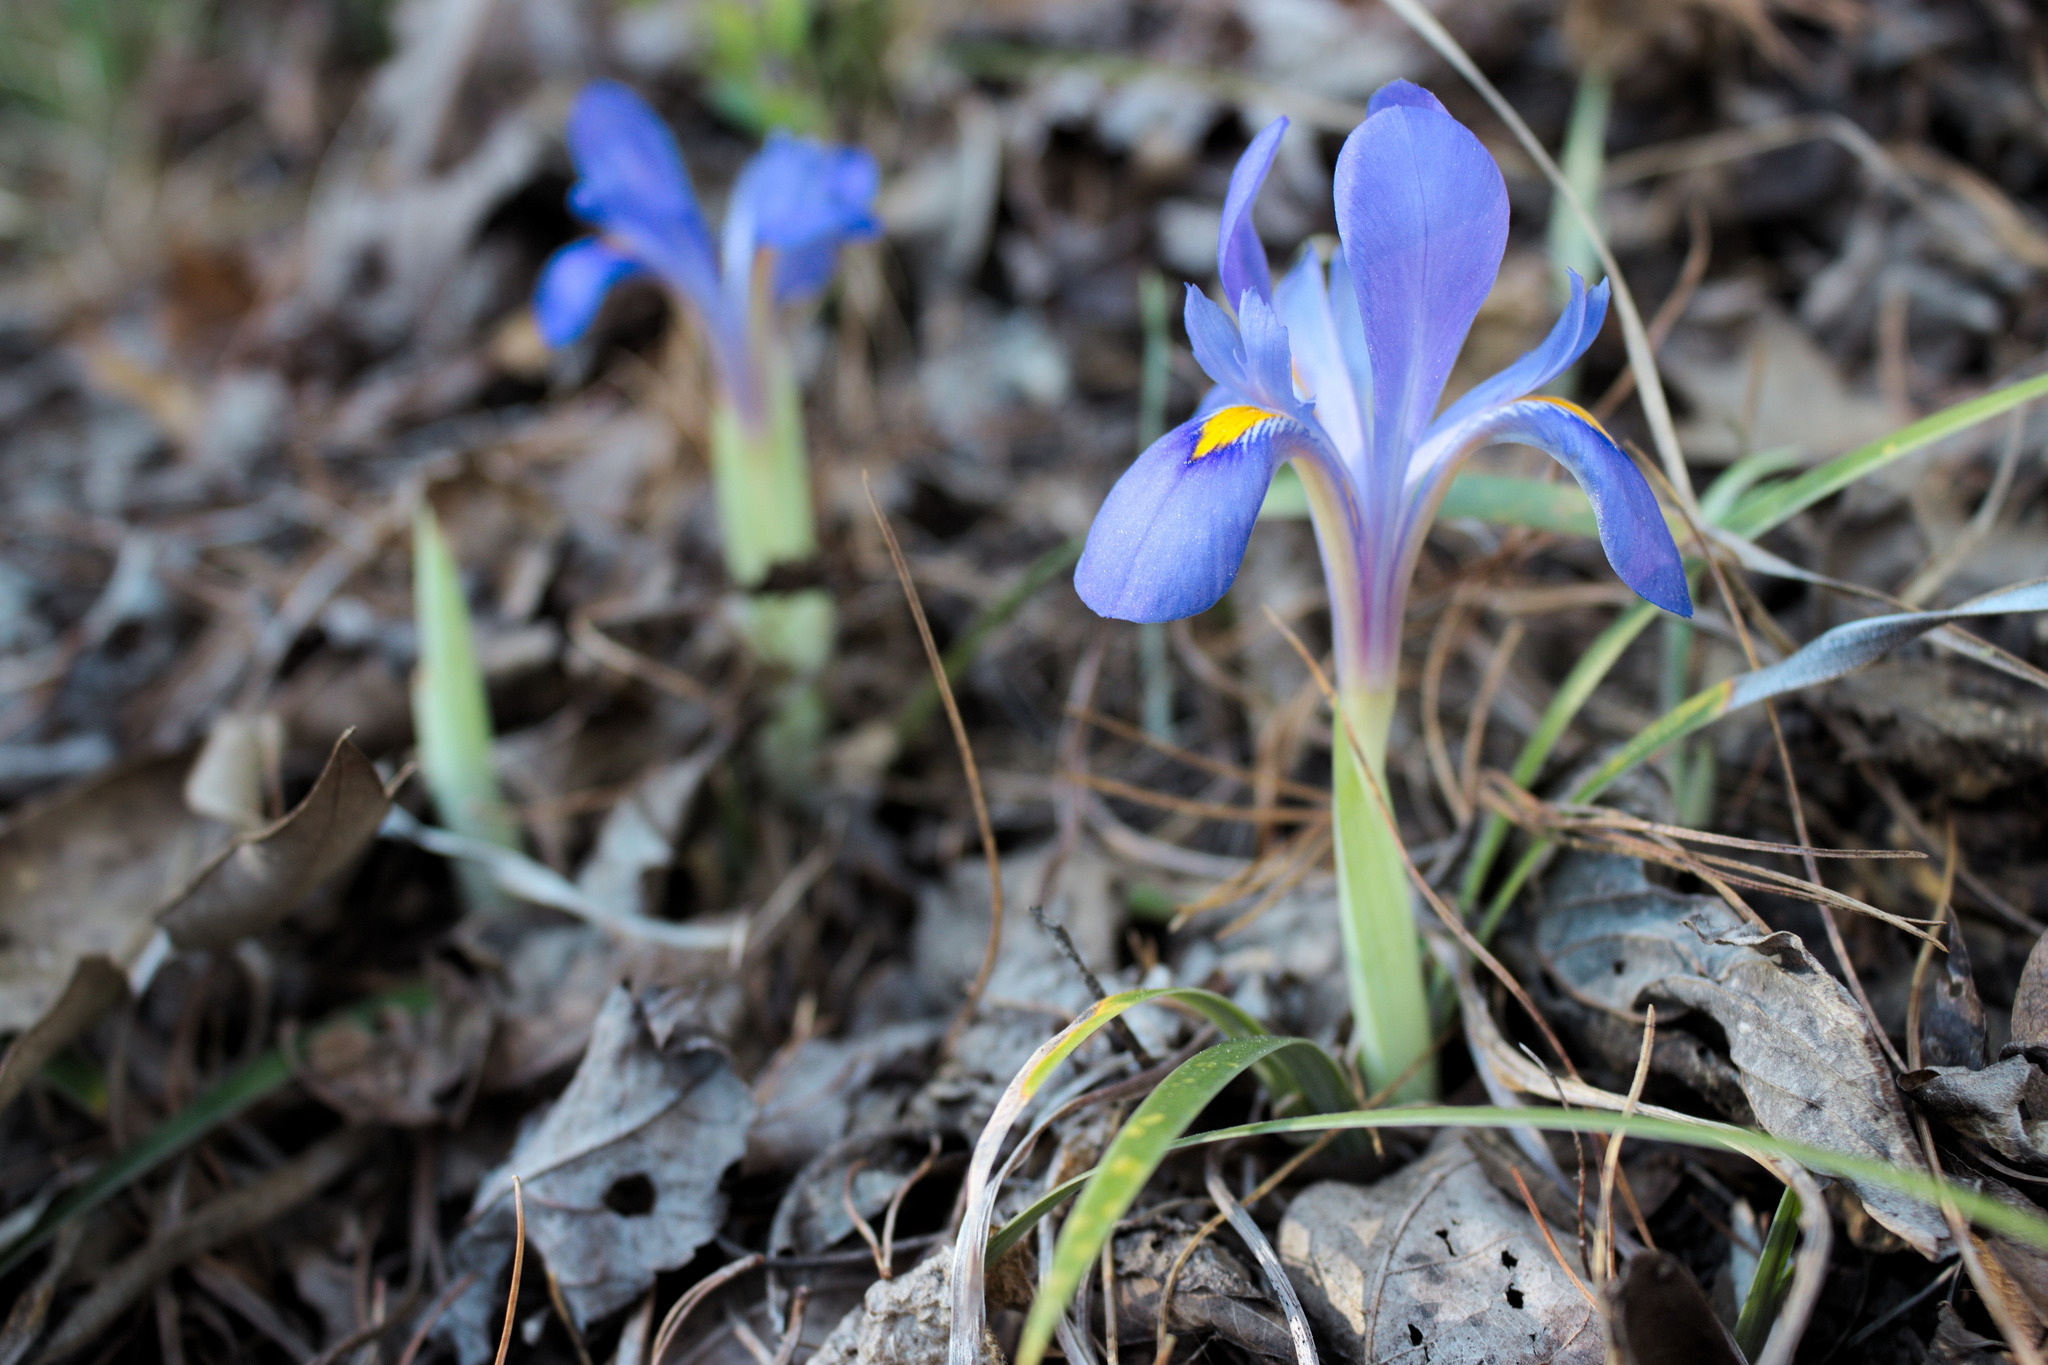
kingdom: Plantae
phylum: Tracheophyta
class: Liliopsida
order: Asparagales
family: Iridaceae
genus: Iris
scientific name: Iris verna
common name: Dwarf iris
